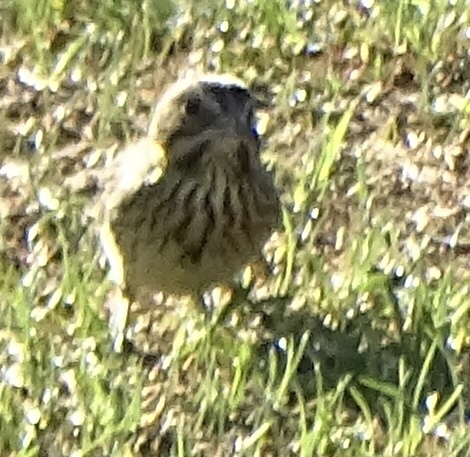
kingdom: Animalia
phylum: Chordata
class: Aves
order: Passeriformes
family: Passerellidae
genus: Passerculus
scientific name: Passerculus sandwichensis
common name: Savannah sparrow
